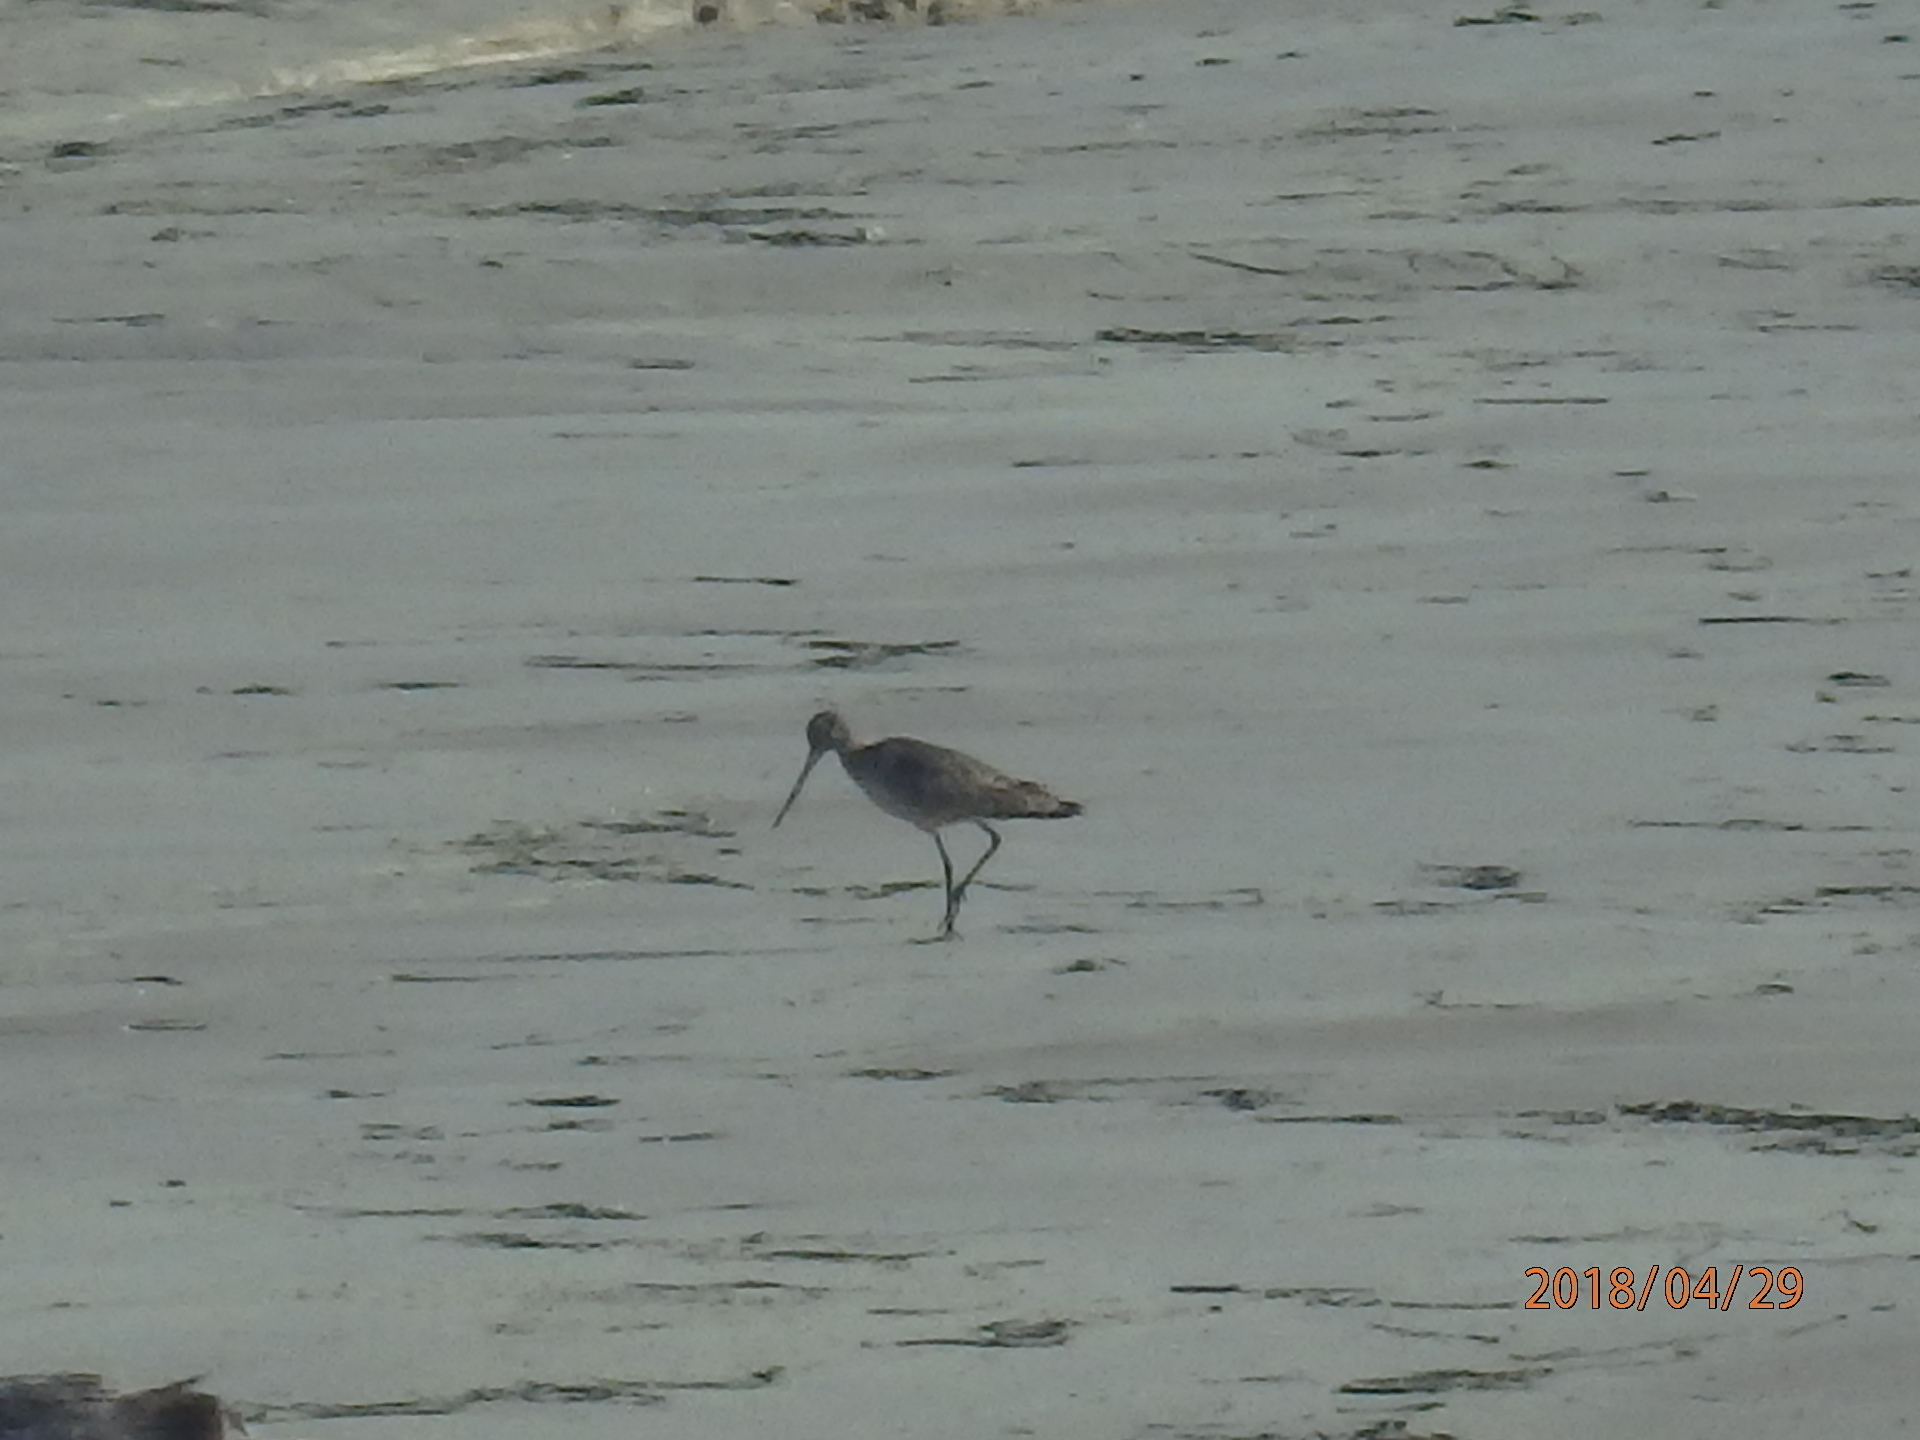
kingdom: Animalia
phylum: Chordata
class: Aves
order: Charadriiformes
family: Scolopacidae
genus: Limosa
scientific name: Limosa fedoa
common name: Marbled godwit
